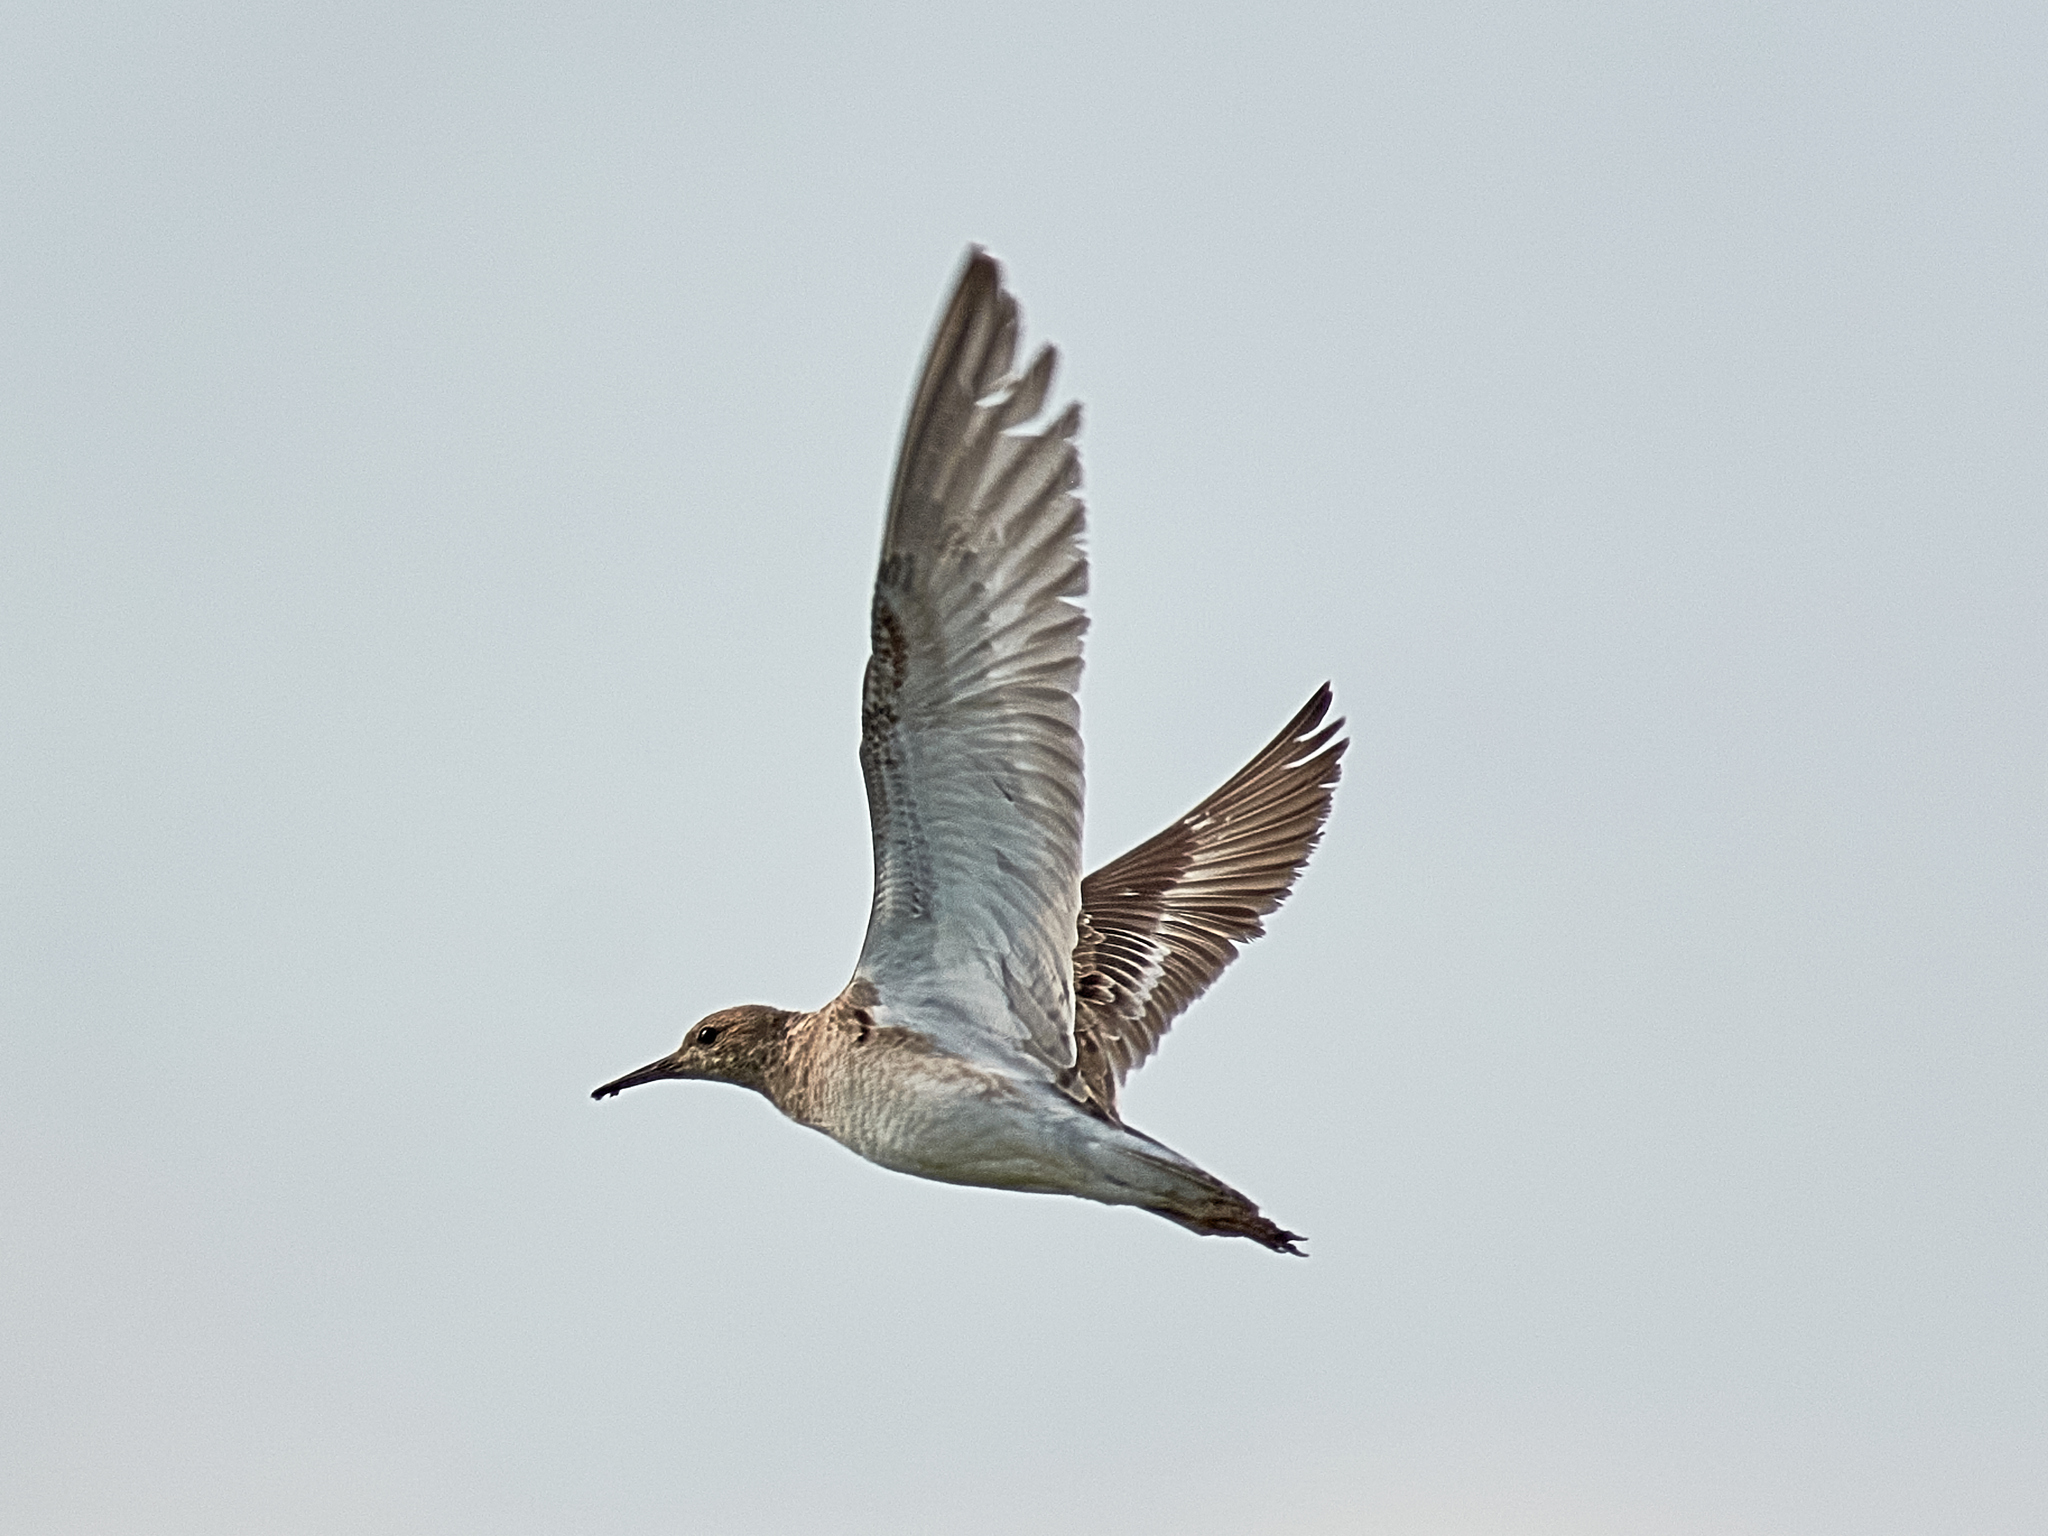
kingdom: Animalia
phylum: Chordata
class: Aves
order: Charadriiformes
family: Scolopacidae
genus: Calidris
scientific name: Calidris pugnax
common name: Ruff
